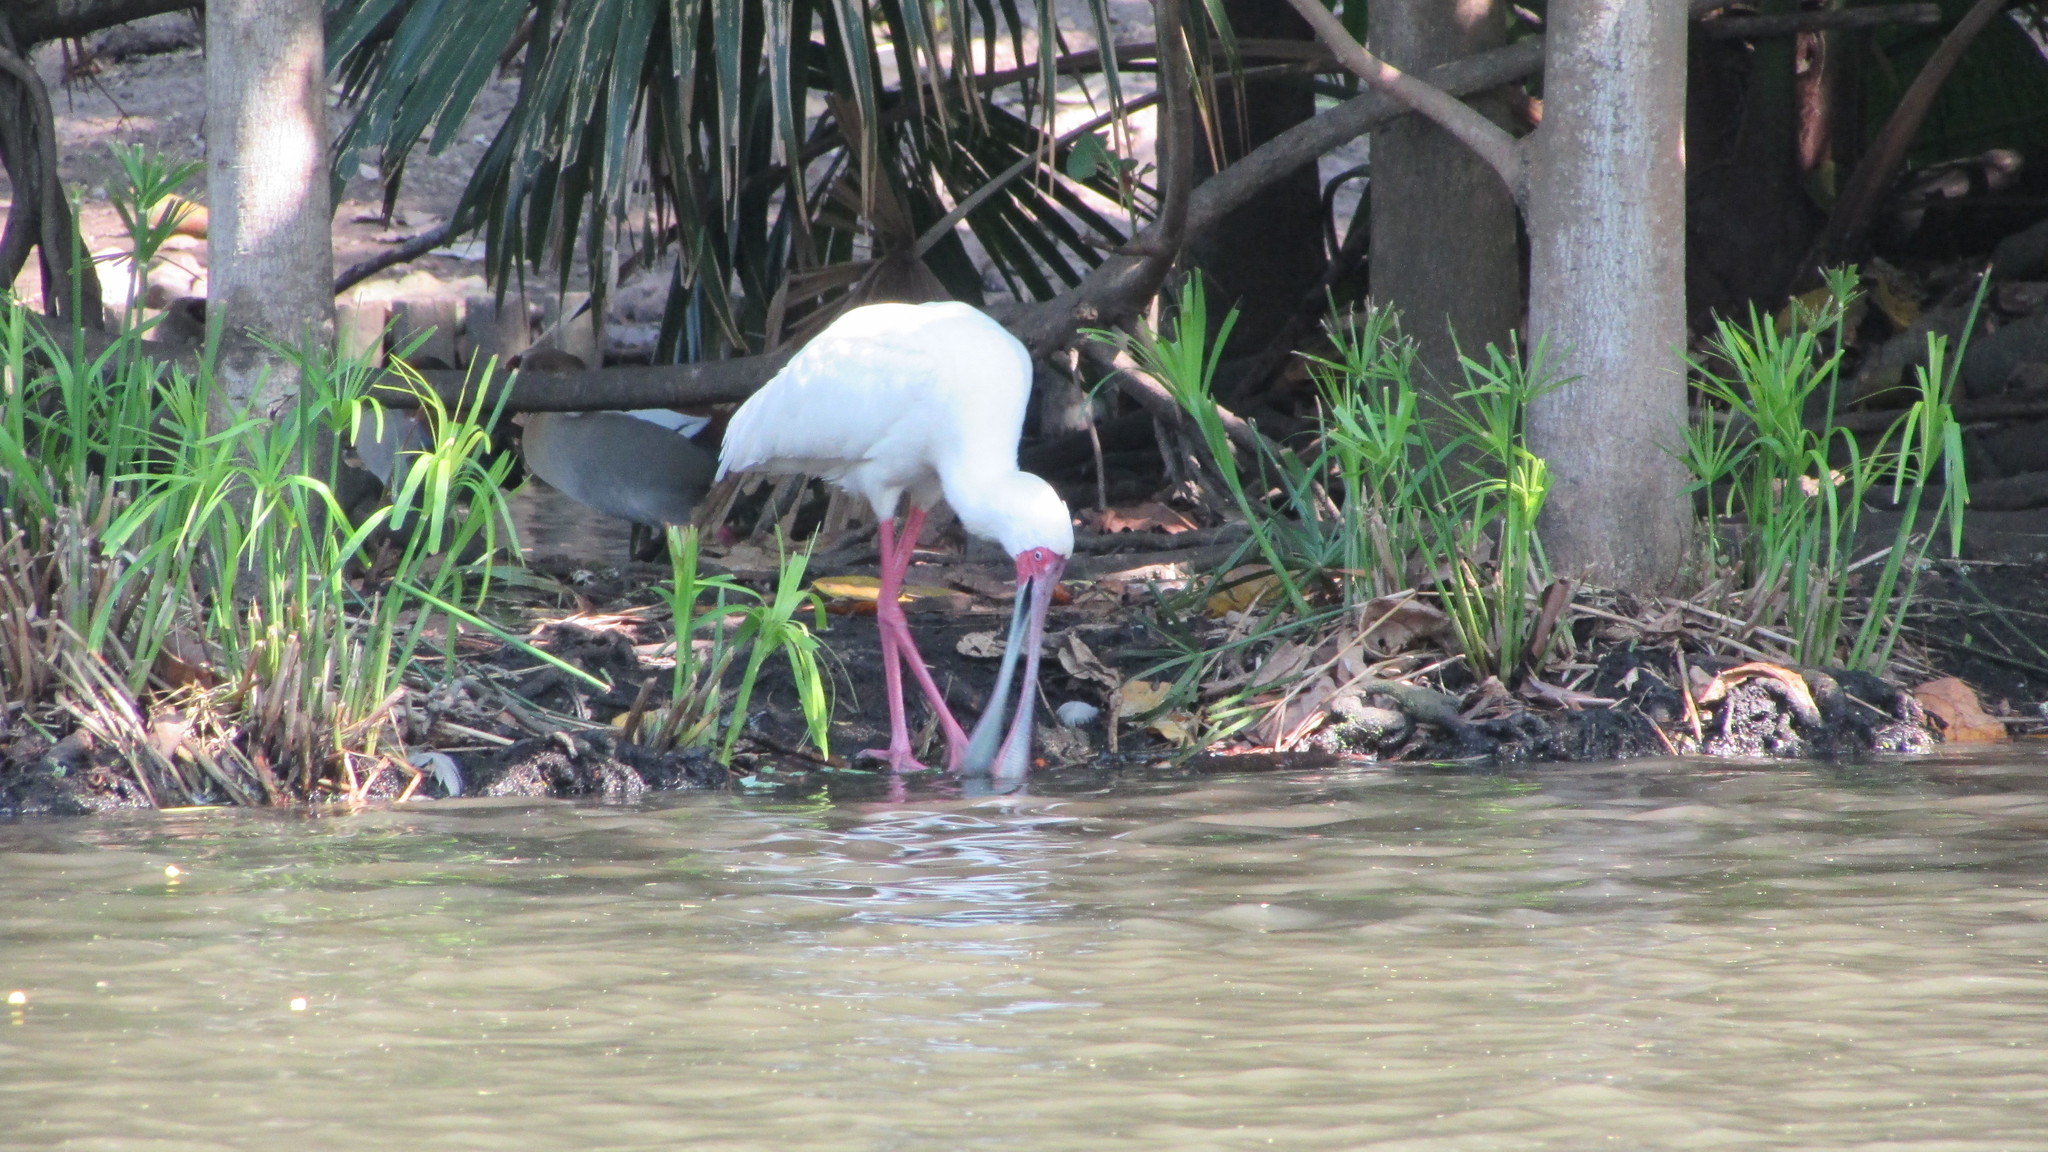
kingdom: Animalia
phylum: Chordata
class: Aves
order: Pelecaniformes
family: Threskiornithidae
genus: Platalea
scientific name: Platalea alba
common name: African spoonbill
